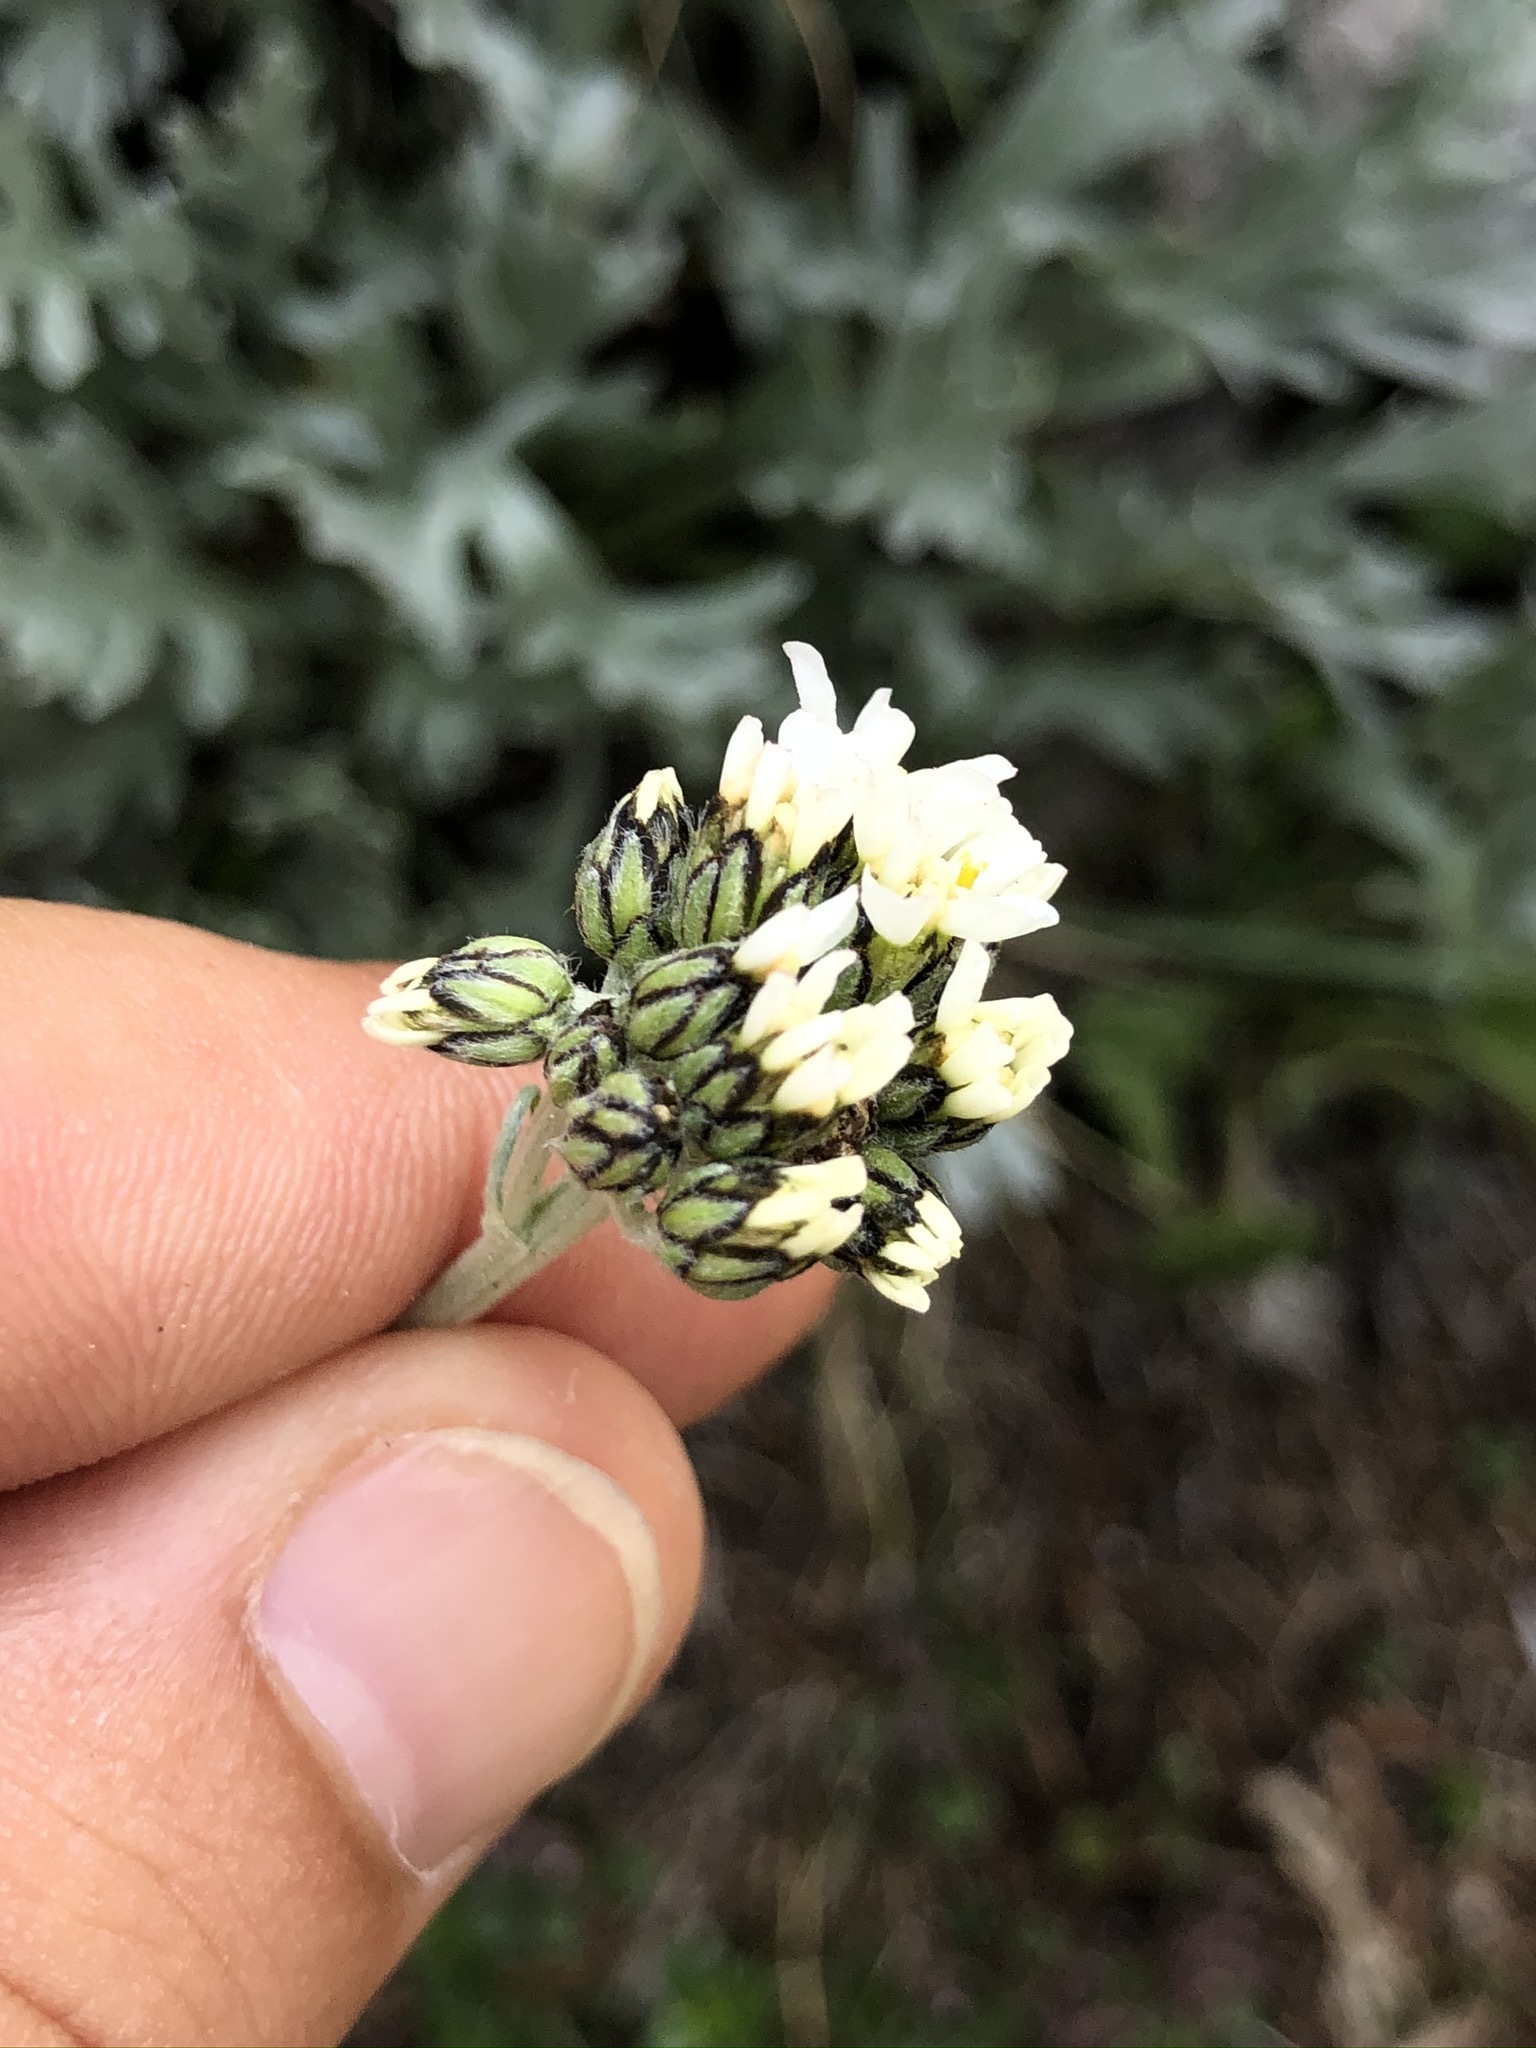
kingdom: Plantae
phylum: Tracheophyta
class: Magnoliopsida
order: Asterales
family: Asteraceae
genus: Achillea
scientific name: Achillea clavennae
